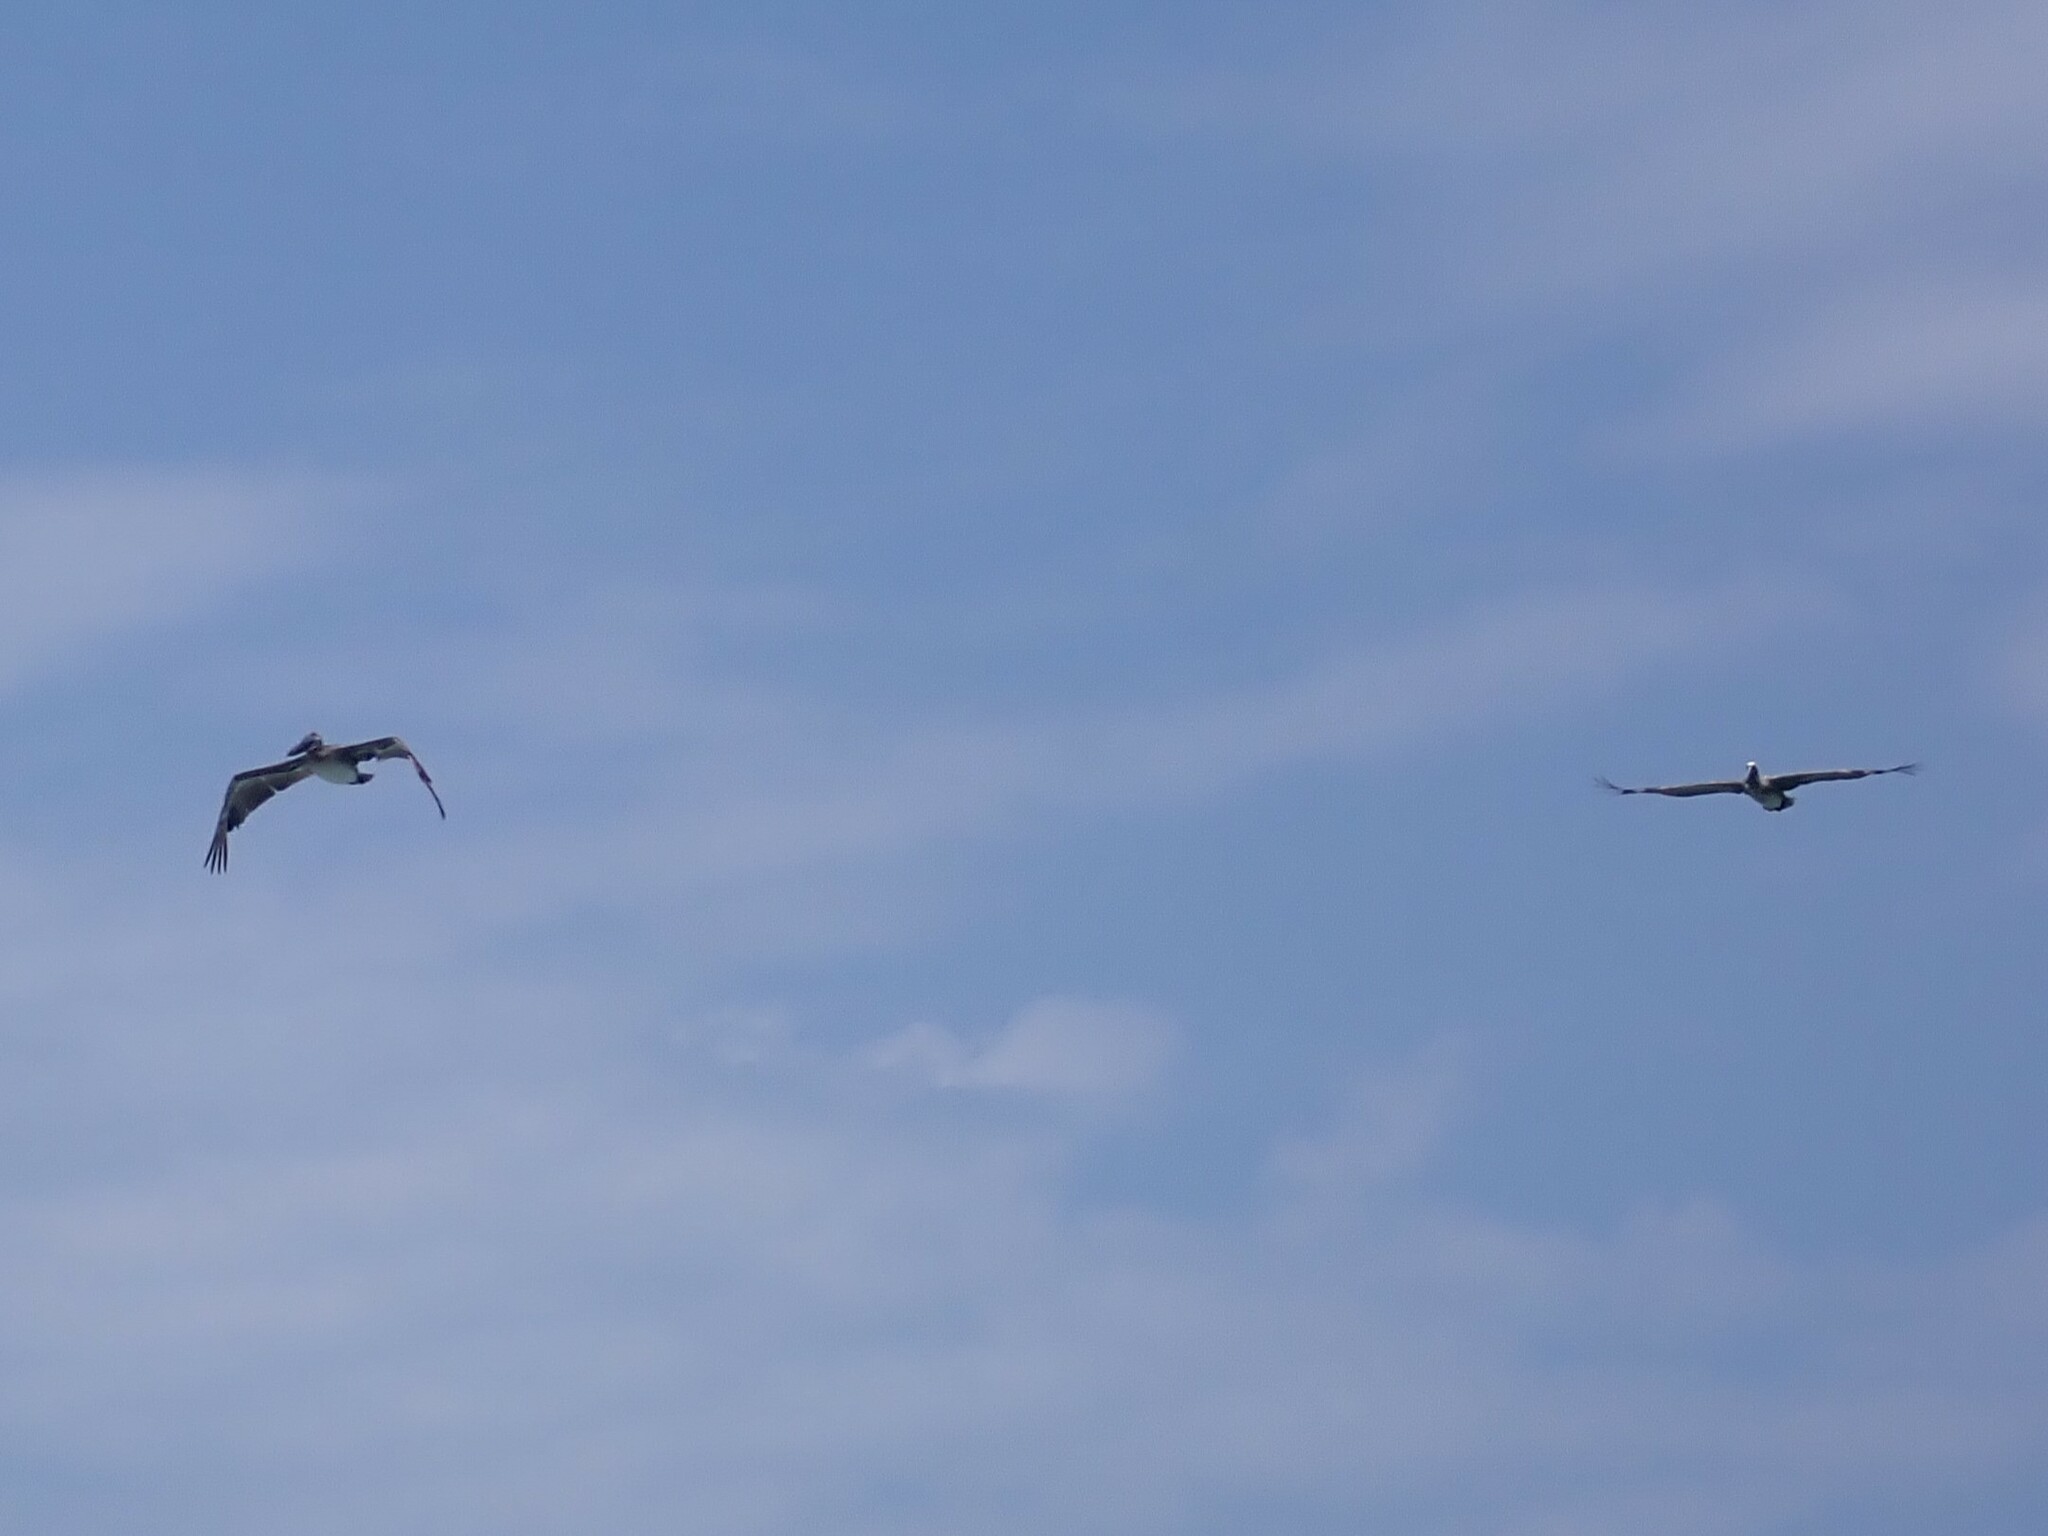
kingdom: Animalia
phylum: Chordata
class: Aves
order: Pelecaniformes
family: Pelecanidae
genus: Pelecanus
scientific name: Pelecanus occidentalis
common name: Brown pelican
